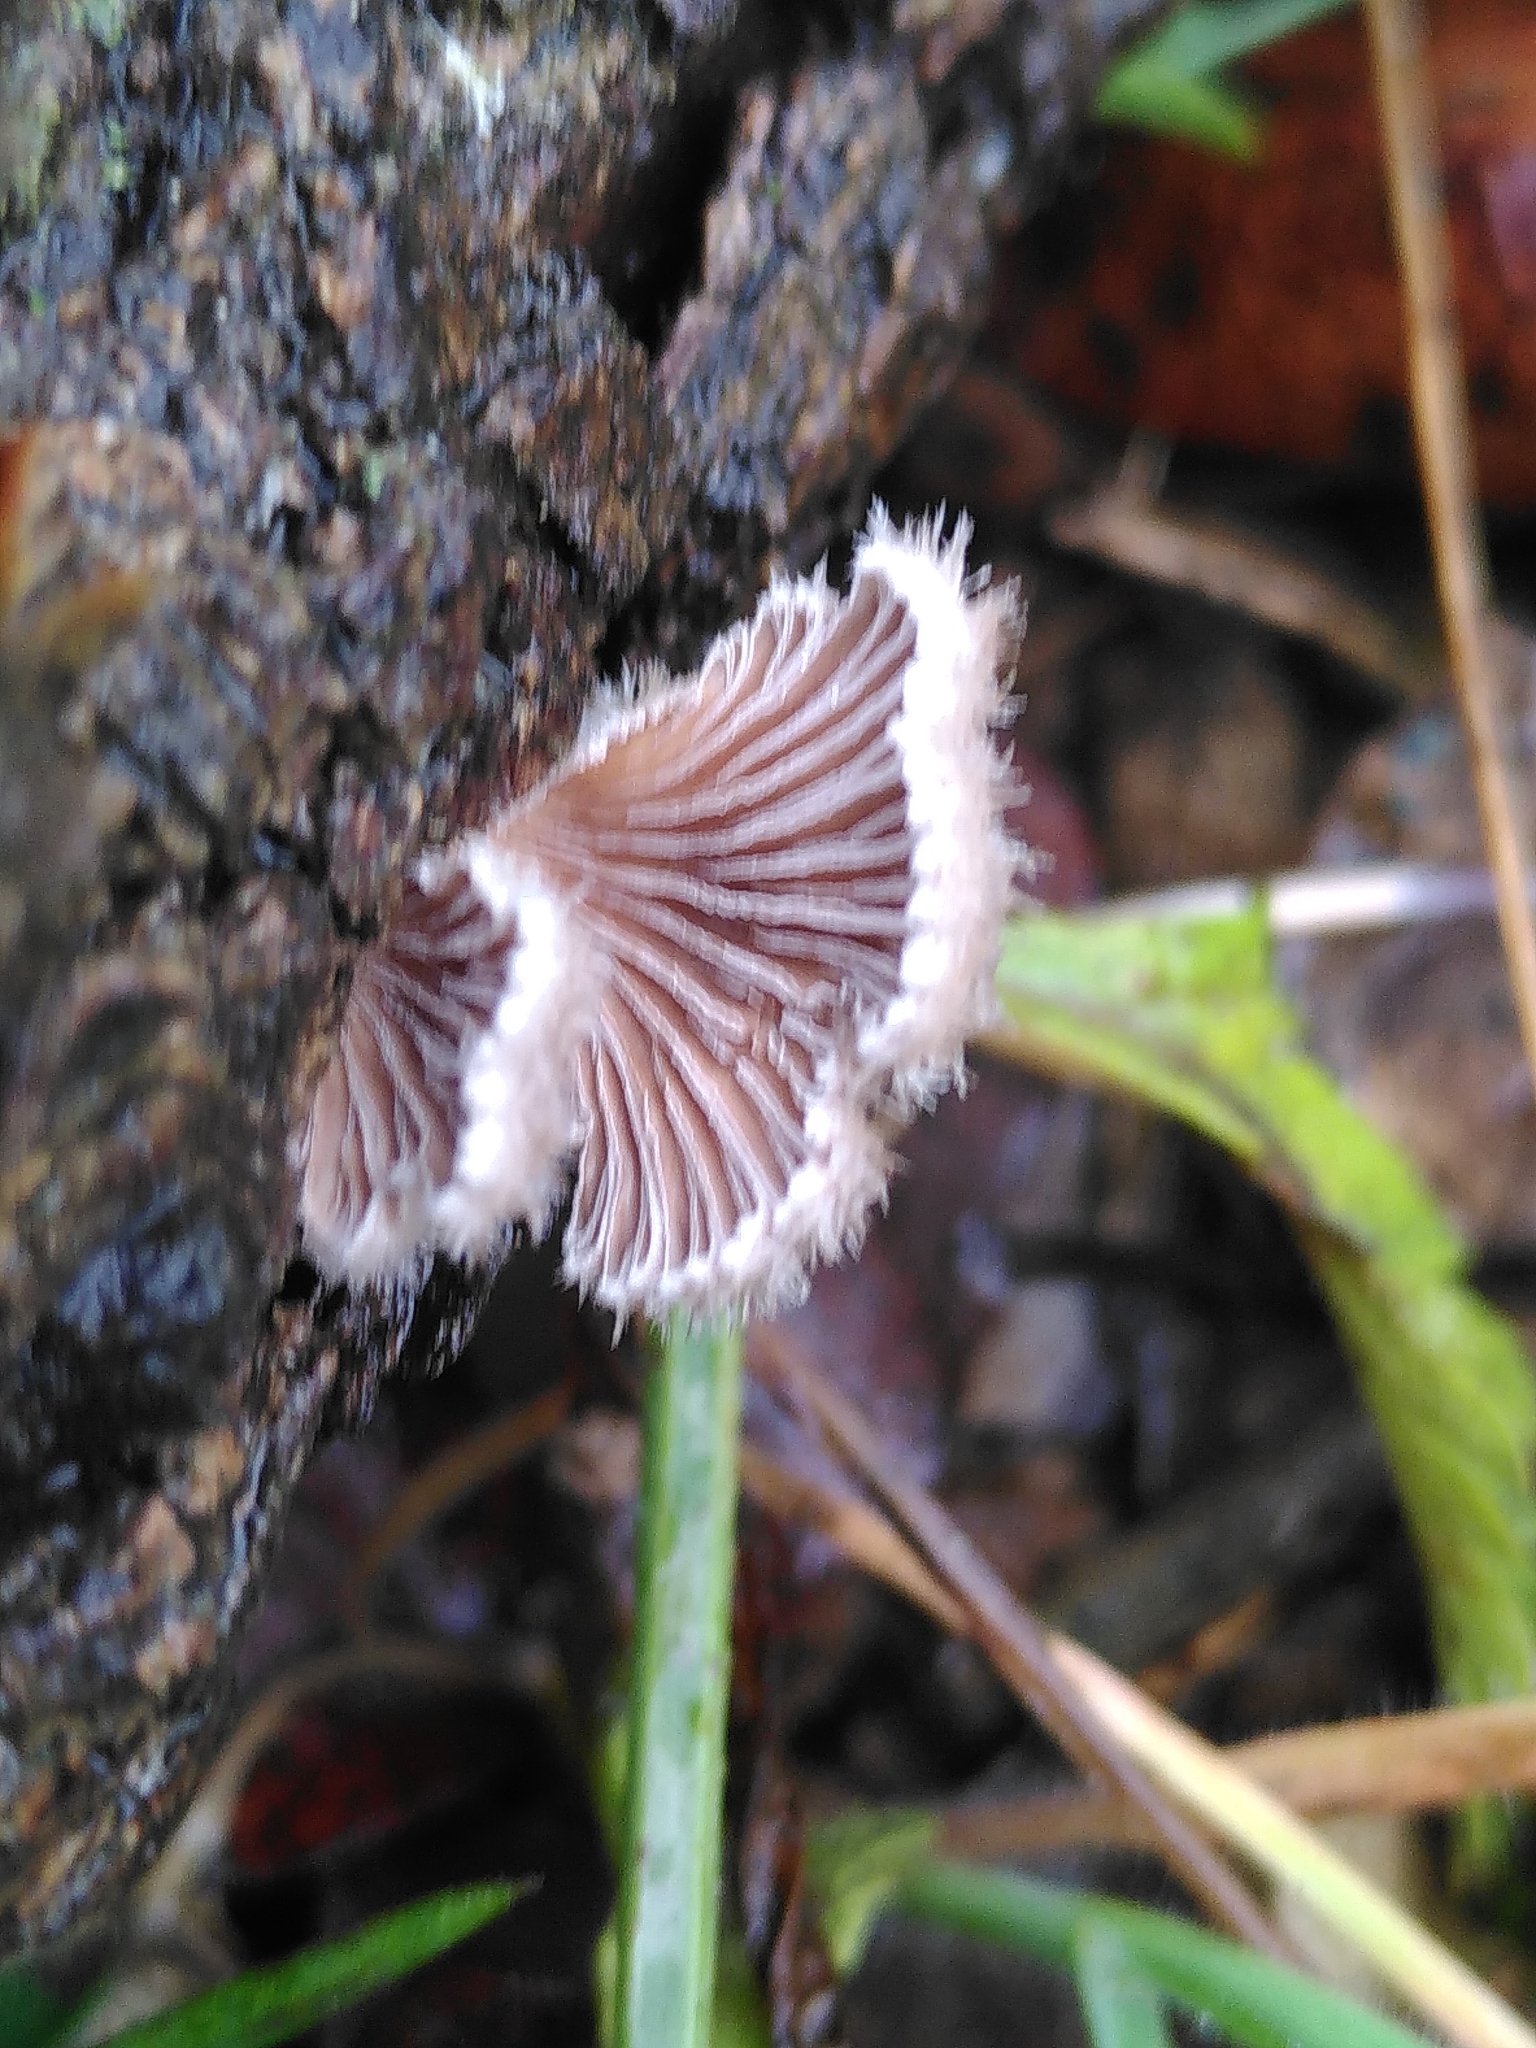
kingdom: Fungi
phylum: Basidiomycota
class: Agaricomycetes
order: Agaricales
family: Schizophyllaceae
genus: Schizophyllum
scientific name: Schizophyllum commune
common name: Common porecrust
